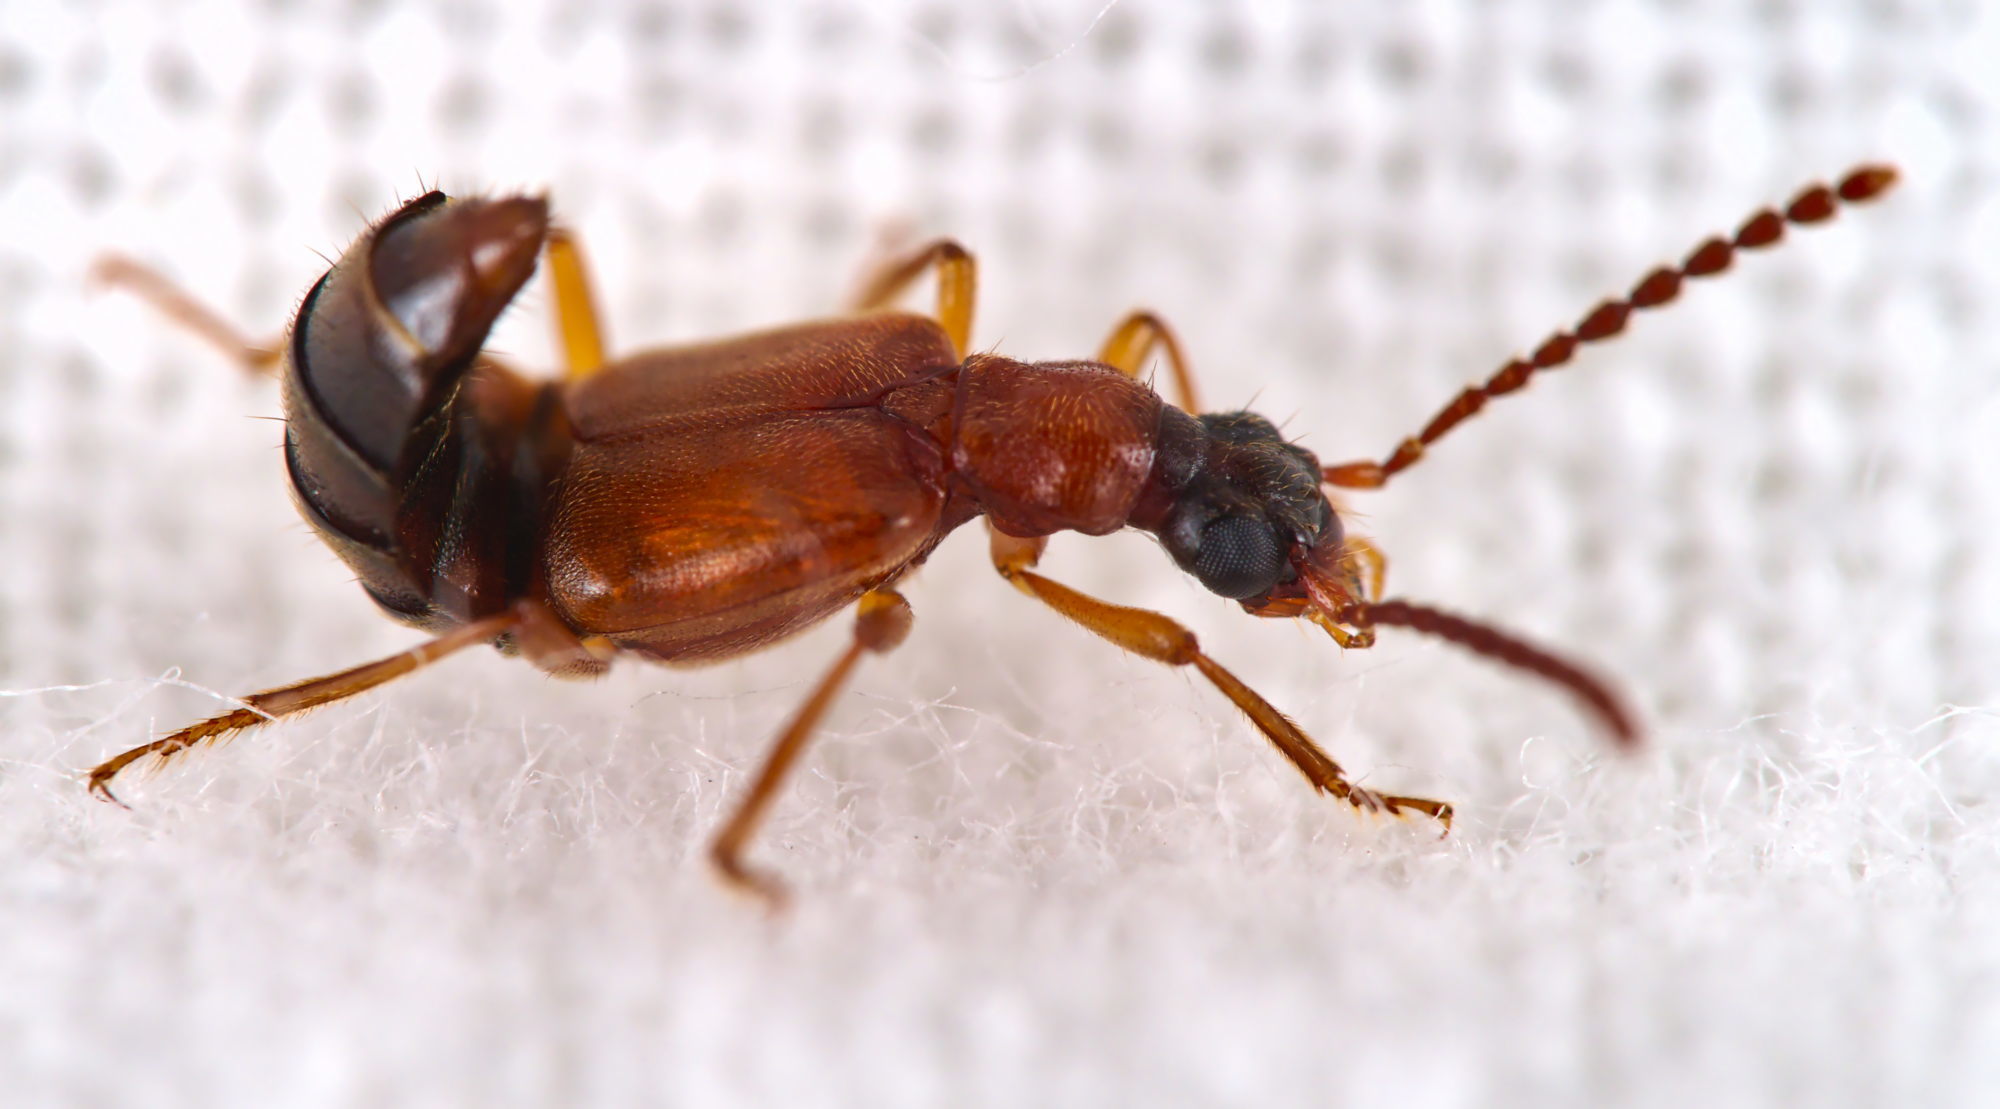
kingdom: Animalia
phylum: Arthropoda
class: Insecta
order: Coleoptera
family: Staphylinidae
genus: Deleaster
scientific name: Deleaster dichrous
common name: Rove beetle
